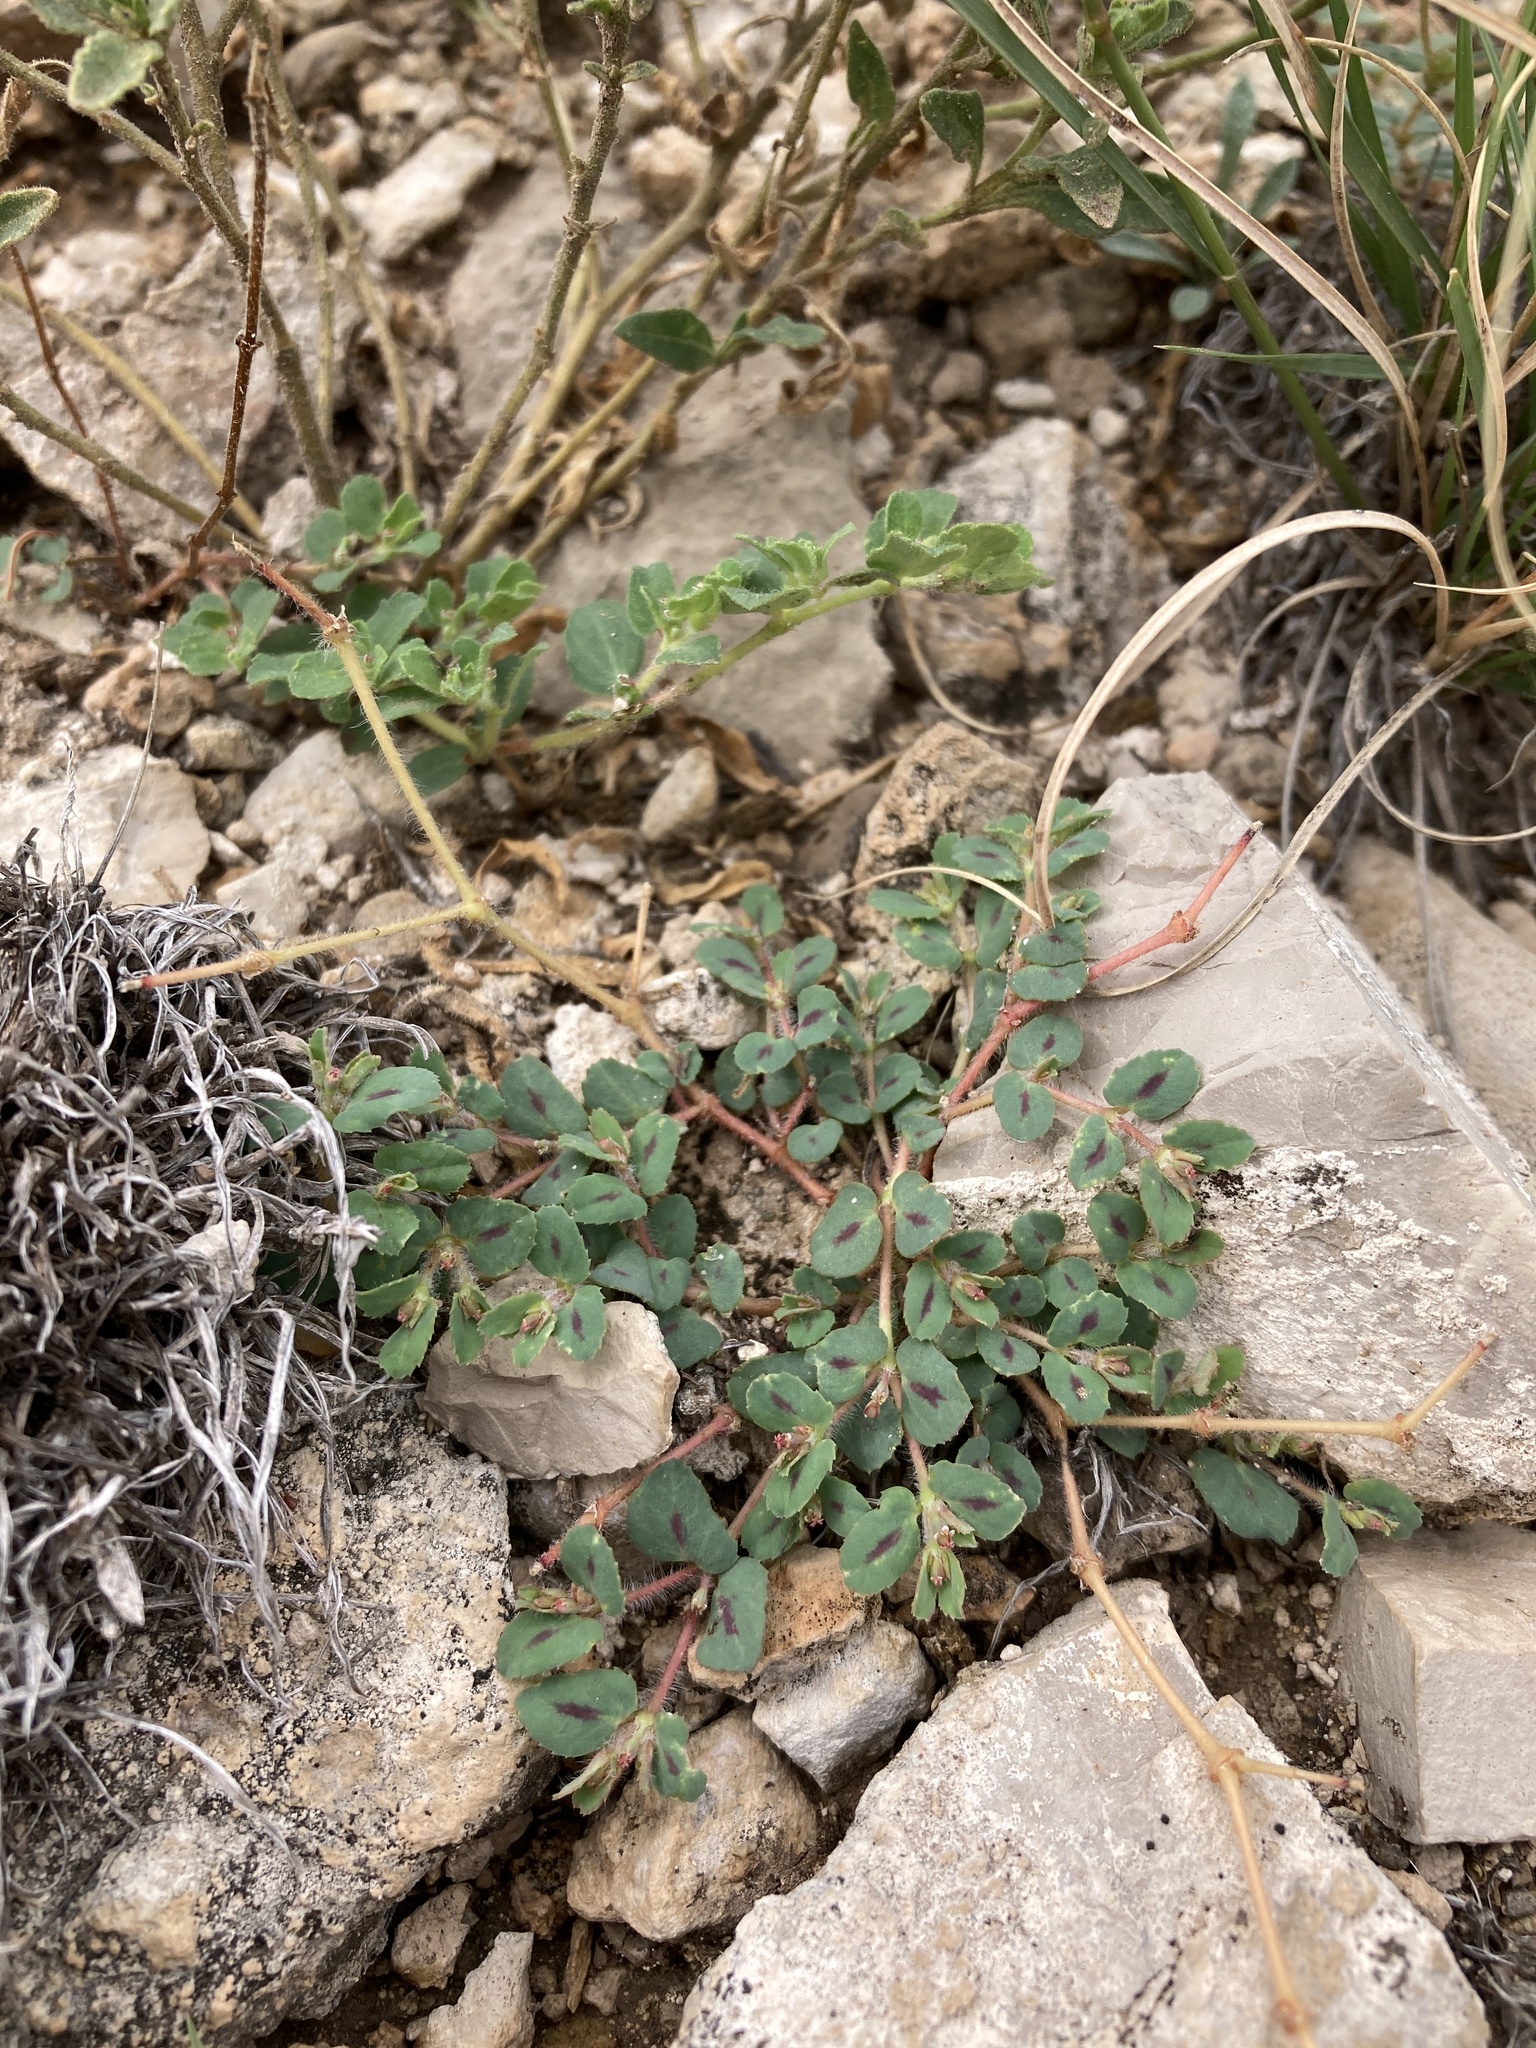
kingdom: Plantae
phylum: Tracheophyta
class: Magnoliopsida
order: Malpighiales
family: Euphorbiaceae
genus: Euphorbia
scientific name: Euphorbia serrula
